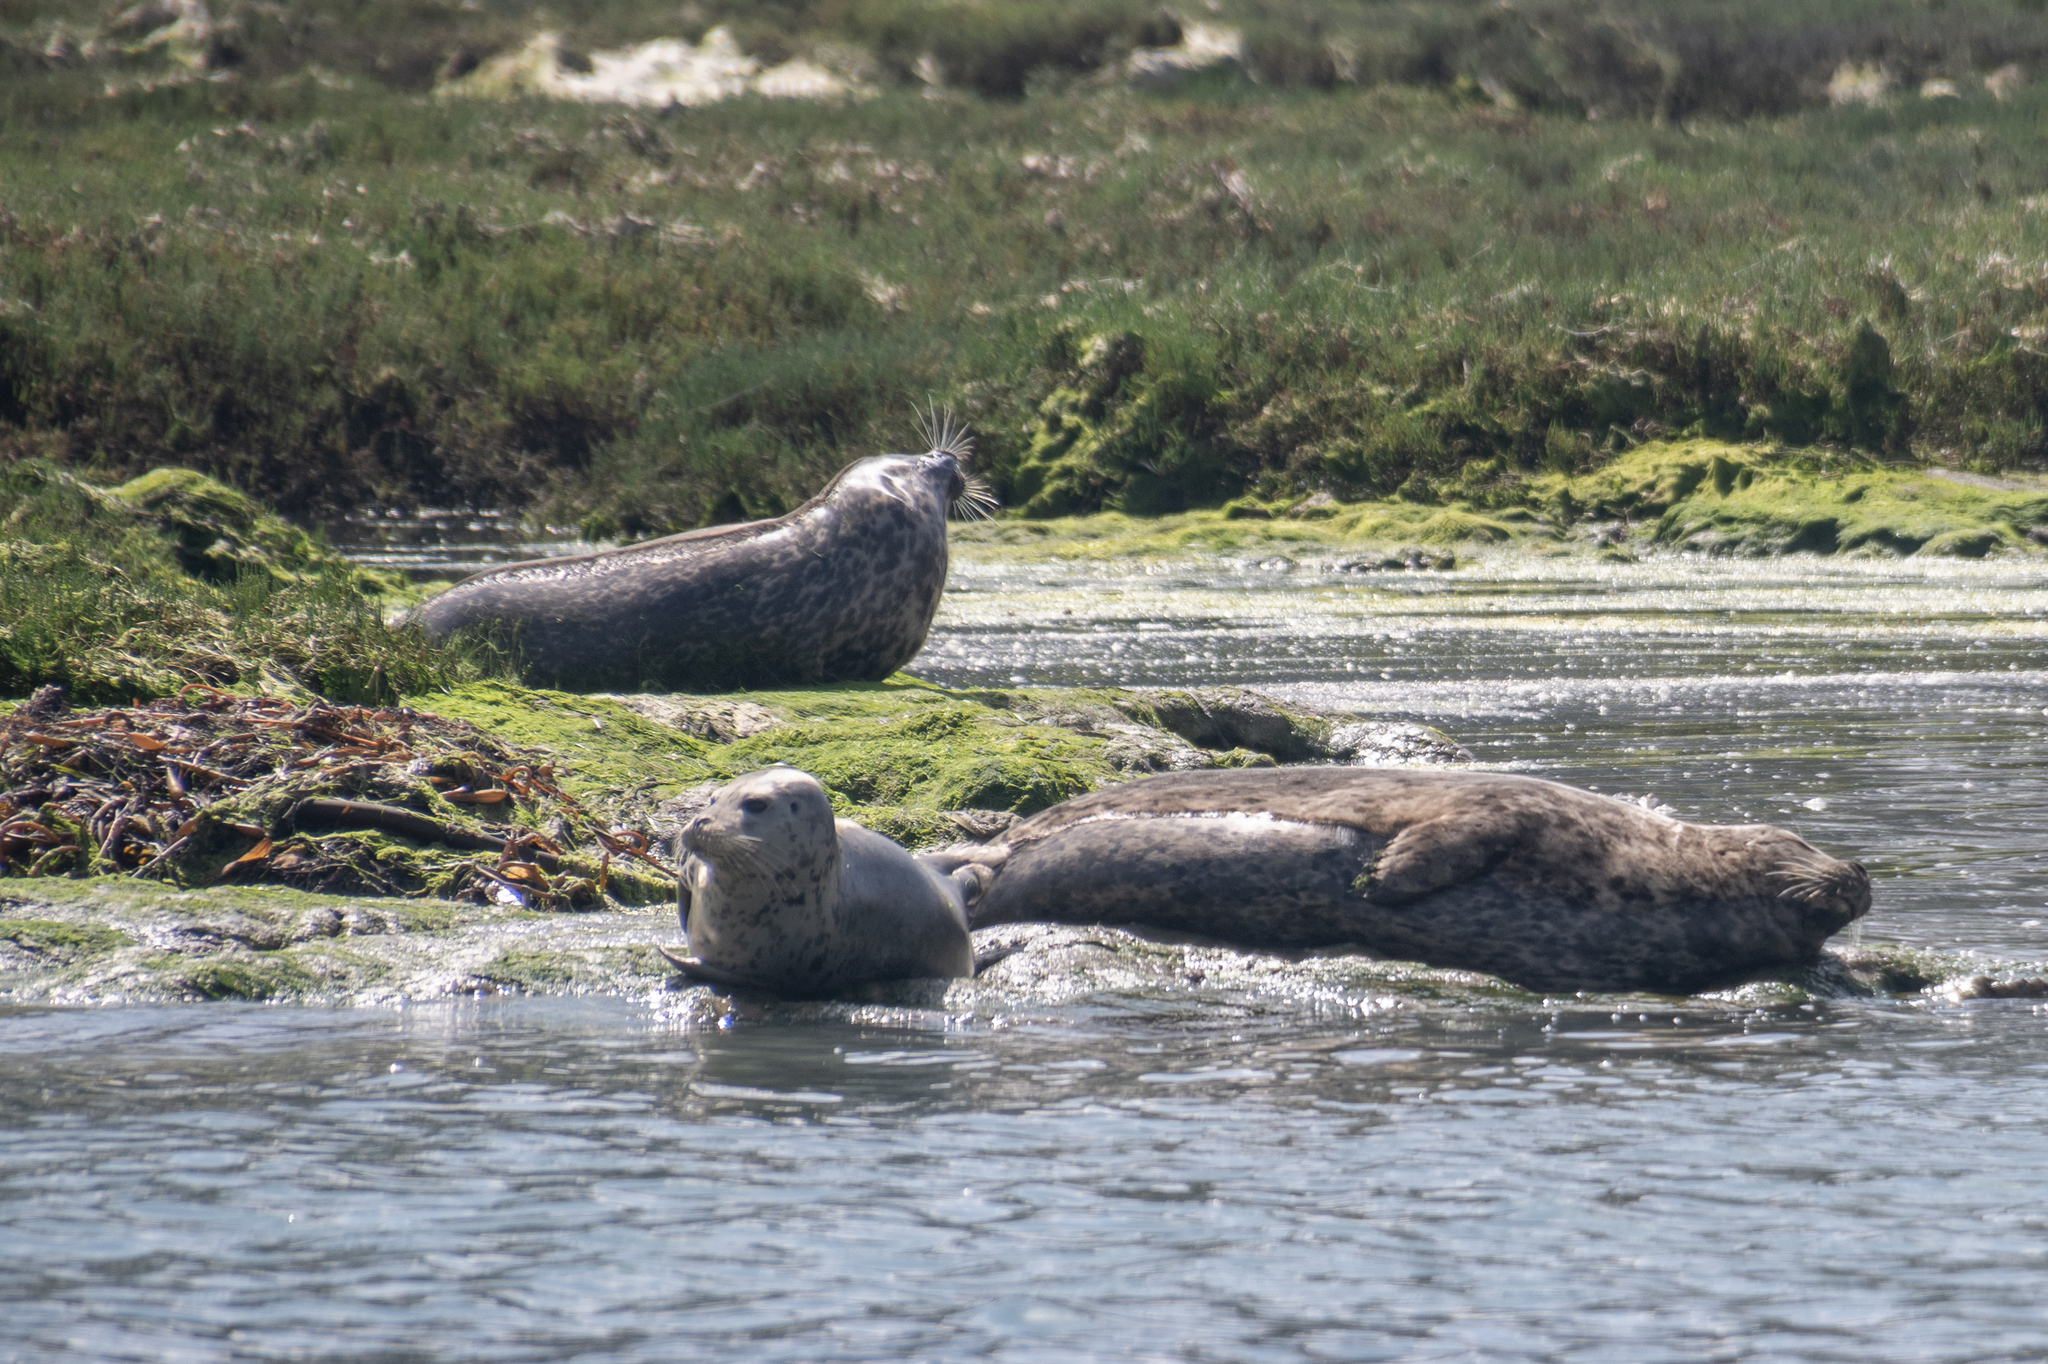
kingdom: Animalia
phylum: Chordata
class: Mammalia
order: Carnivora
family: Phocidae
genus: Phoca
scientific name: Phoca vitulina
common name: Harbor seal
